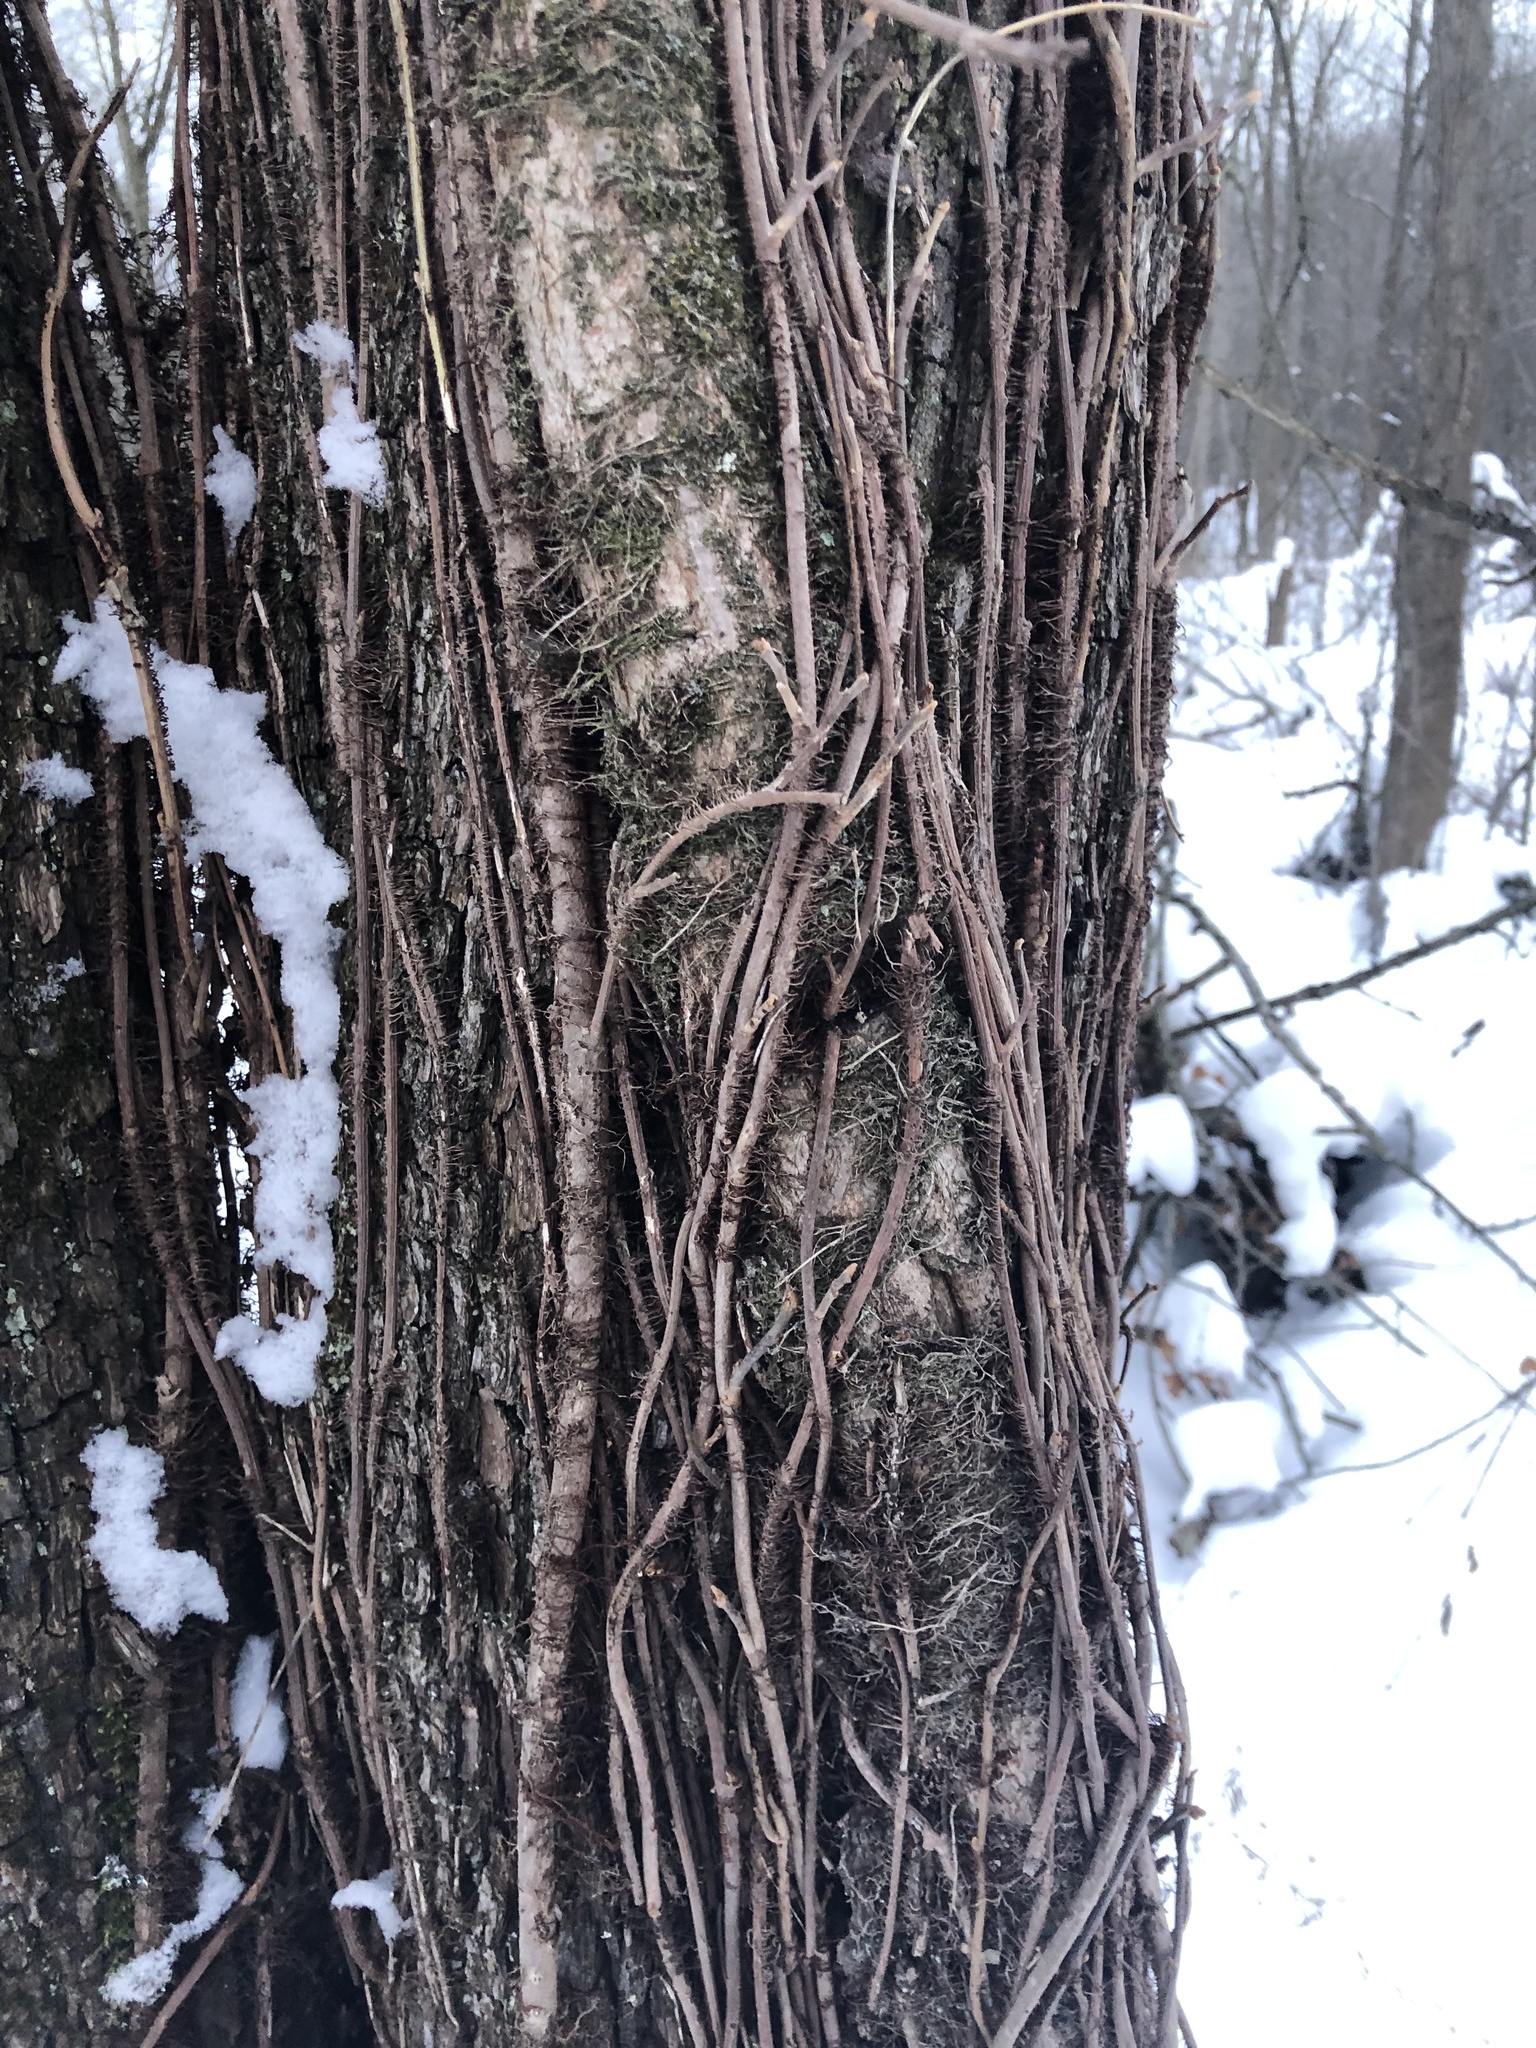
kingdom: Plantae
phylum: Tracheophyta
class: Magnoliopsida
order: Sapindales
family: Anacardiaceae
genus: Toxicodendron
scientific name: Toxicodendron radicans
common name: Poison ivy
